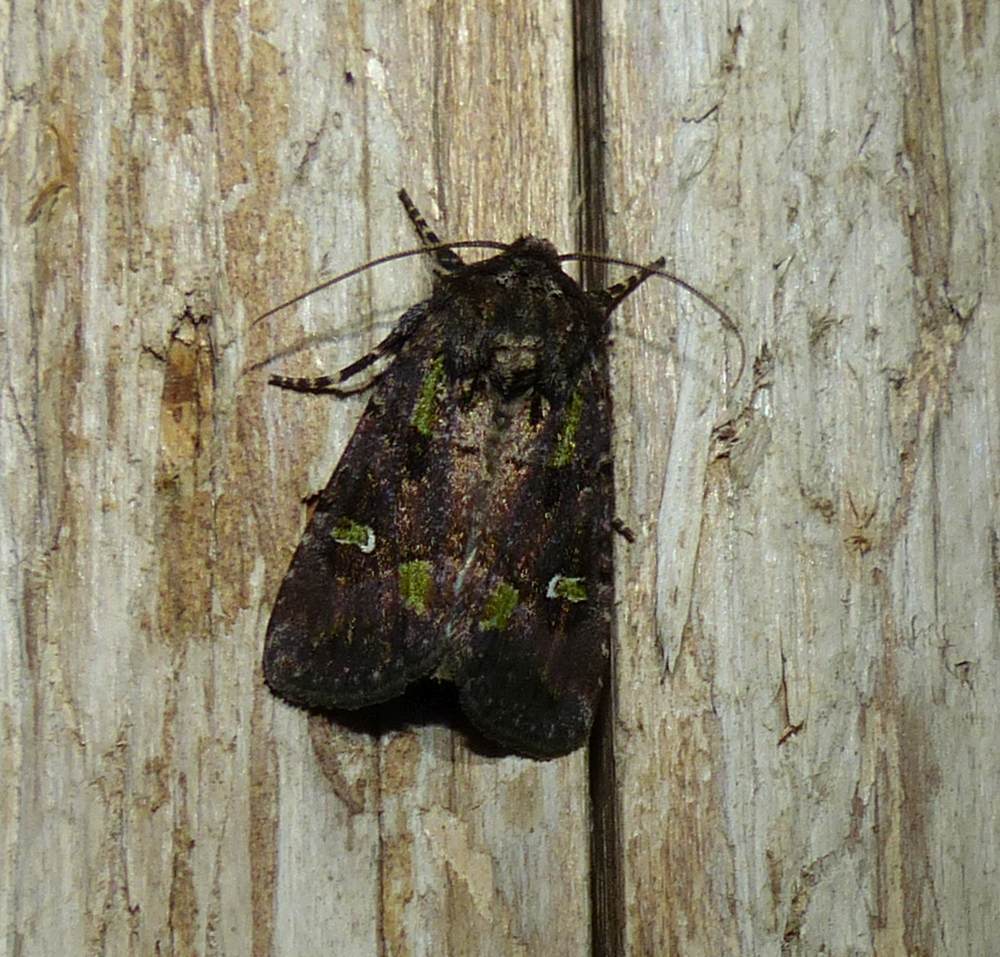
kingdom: Animalia
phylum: Arthropoda
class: Insecta
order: Lepidoptera
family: Noctuidae
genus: Lacinipolia
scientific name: Lacinipolia renigera
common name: Kidney-spotted minor
